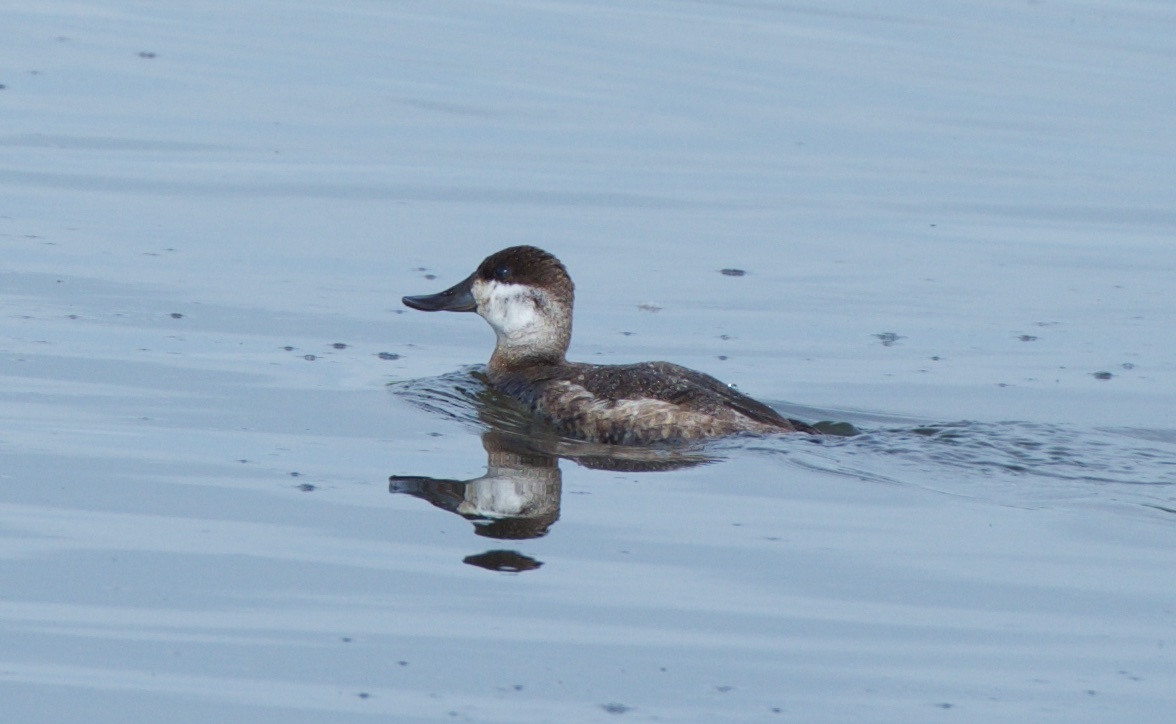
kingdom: Animalia
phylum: Chordata
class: Aves
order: Anseriformes
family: Anatidae
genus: Oxyura
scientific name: Oxyura jamaicensis
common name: Ruddy duck
